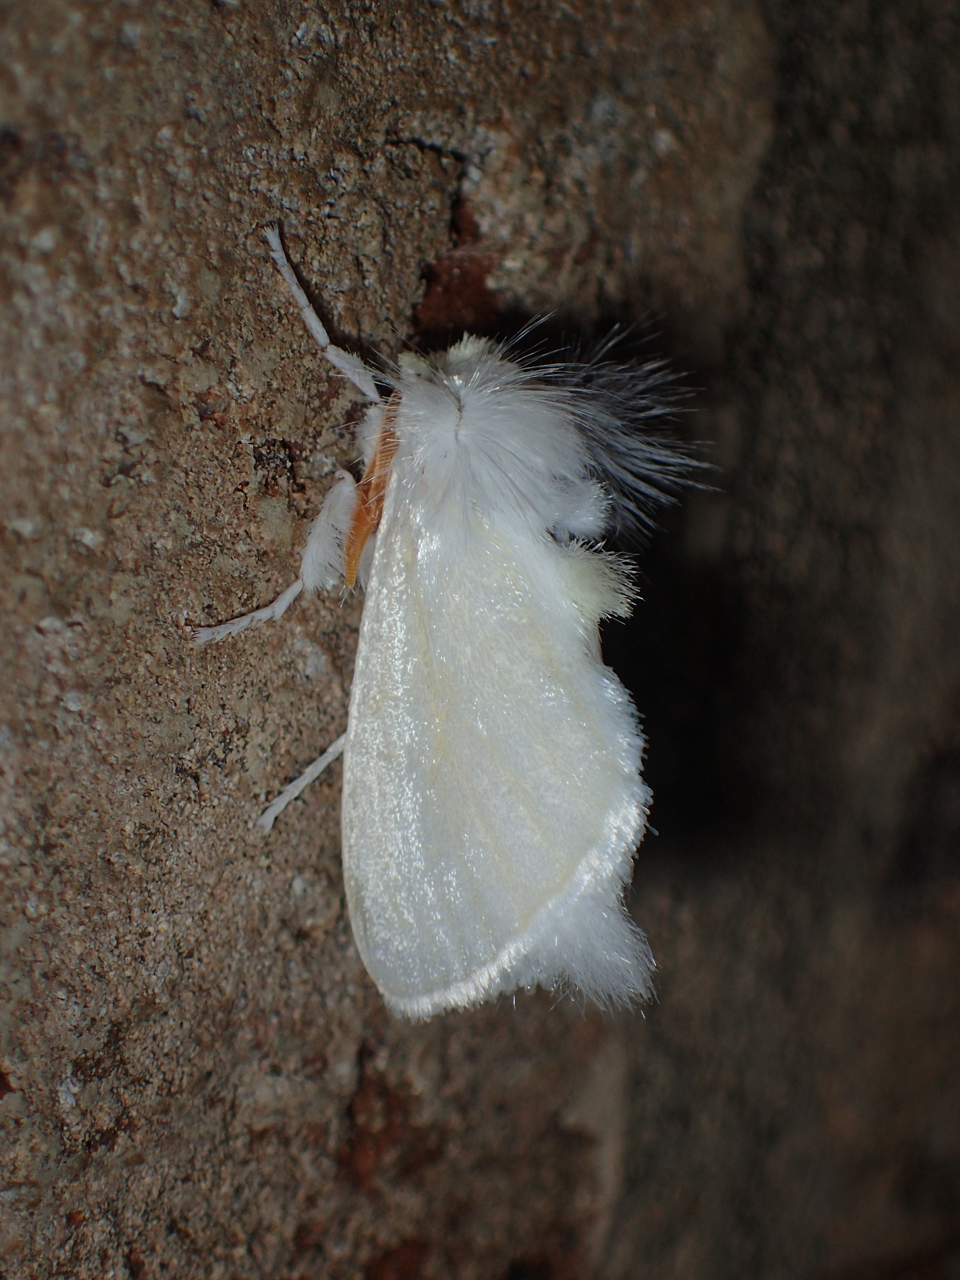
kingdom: Animalia
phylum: Arthropoda
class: Insecta
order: Lepidoptera
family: Megalopygidae
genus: Norape
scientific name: Norape cretata
